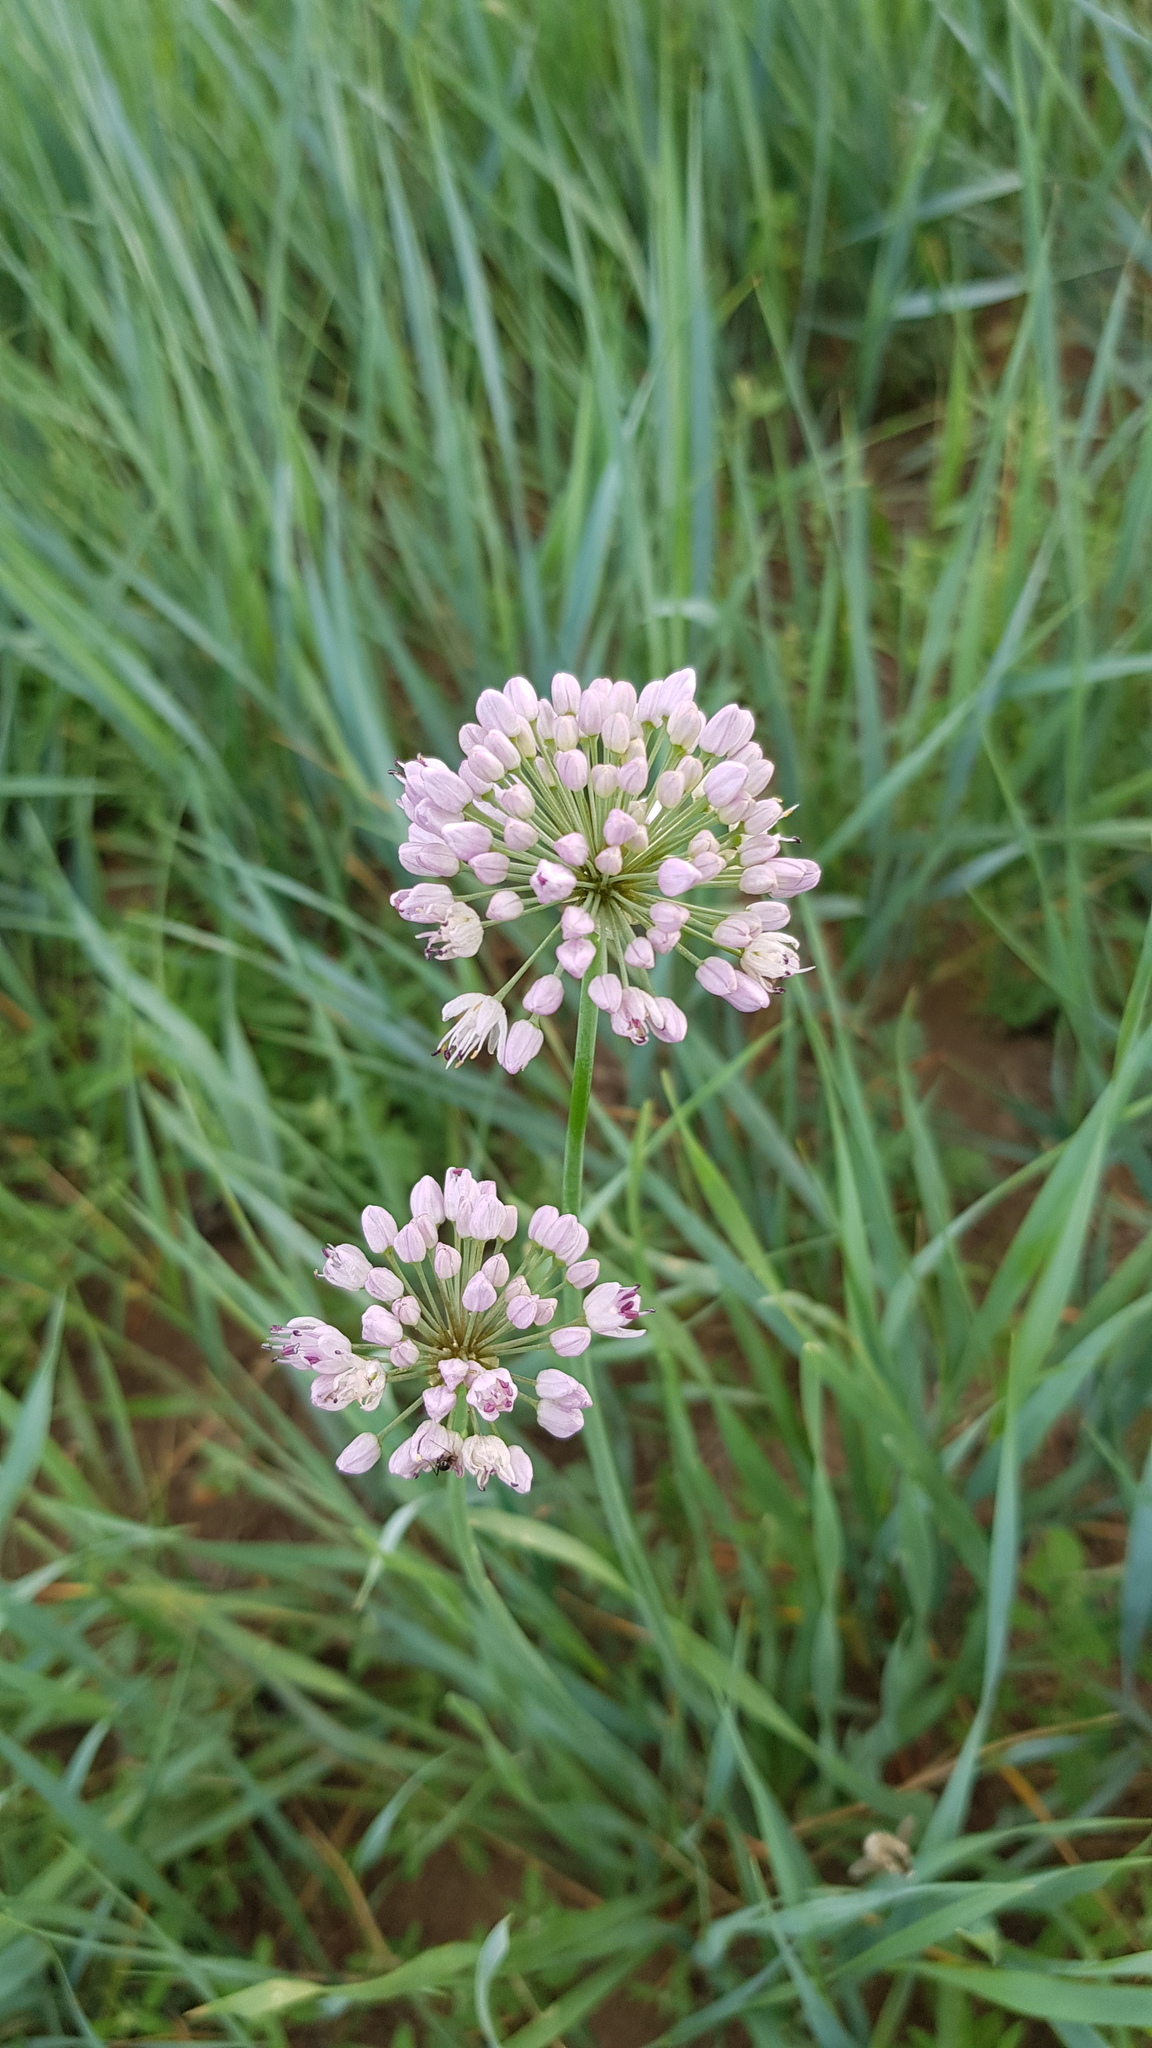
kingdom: Plantae
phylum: Tracheophyta
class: Liliopsida
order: Asparagales
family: Amaryllidaceae
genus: Allium
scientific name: Allium senescens
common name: German garlic
